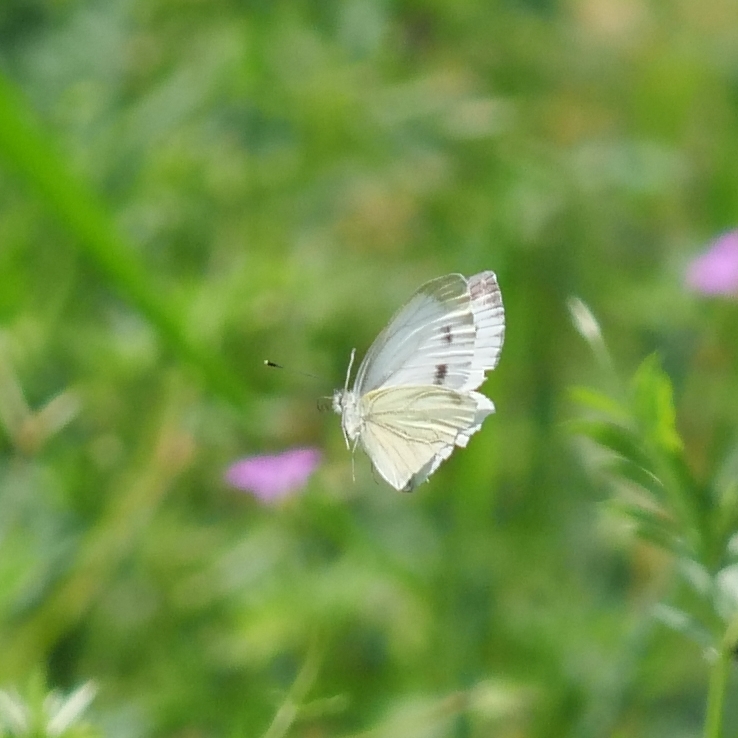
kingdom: Animalia
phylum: Arthropoda
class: Insecta
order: Lepidoptera
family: Pieridae
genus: Pieris
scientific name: Pieris napi
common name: Green-veined white
